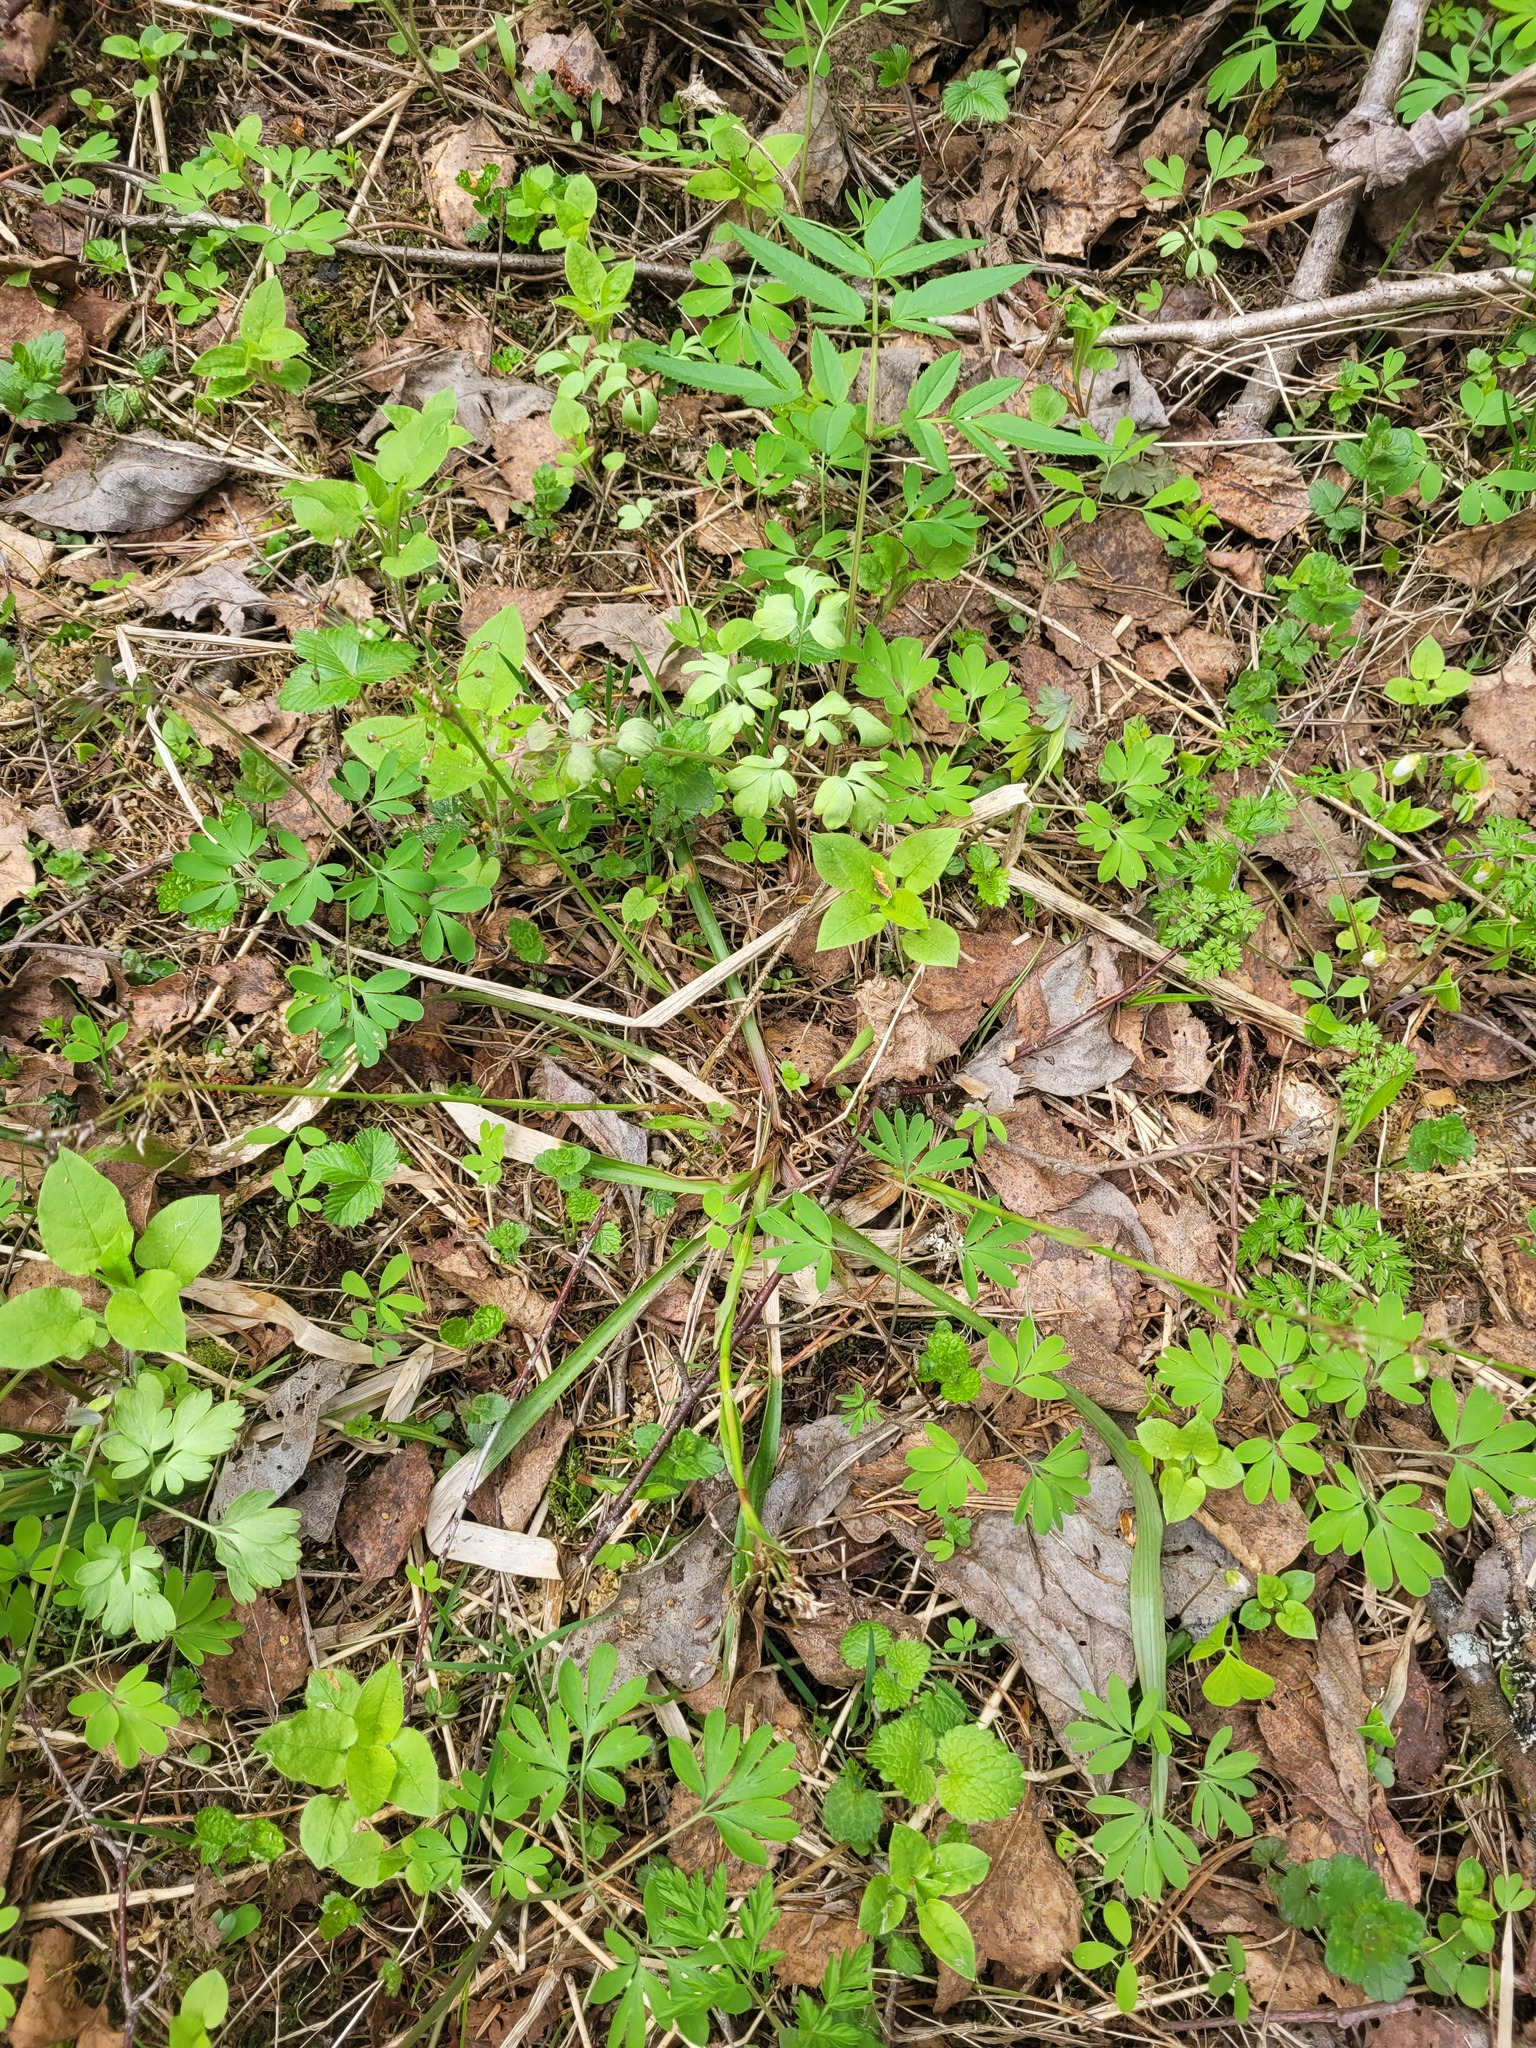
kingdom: Plantae
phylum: Tracheophyta
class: Liliopsida
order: Poales
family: Juncaceae
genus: Luzula
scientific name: Luzula pilosa
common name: Hairy wood-rush
